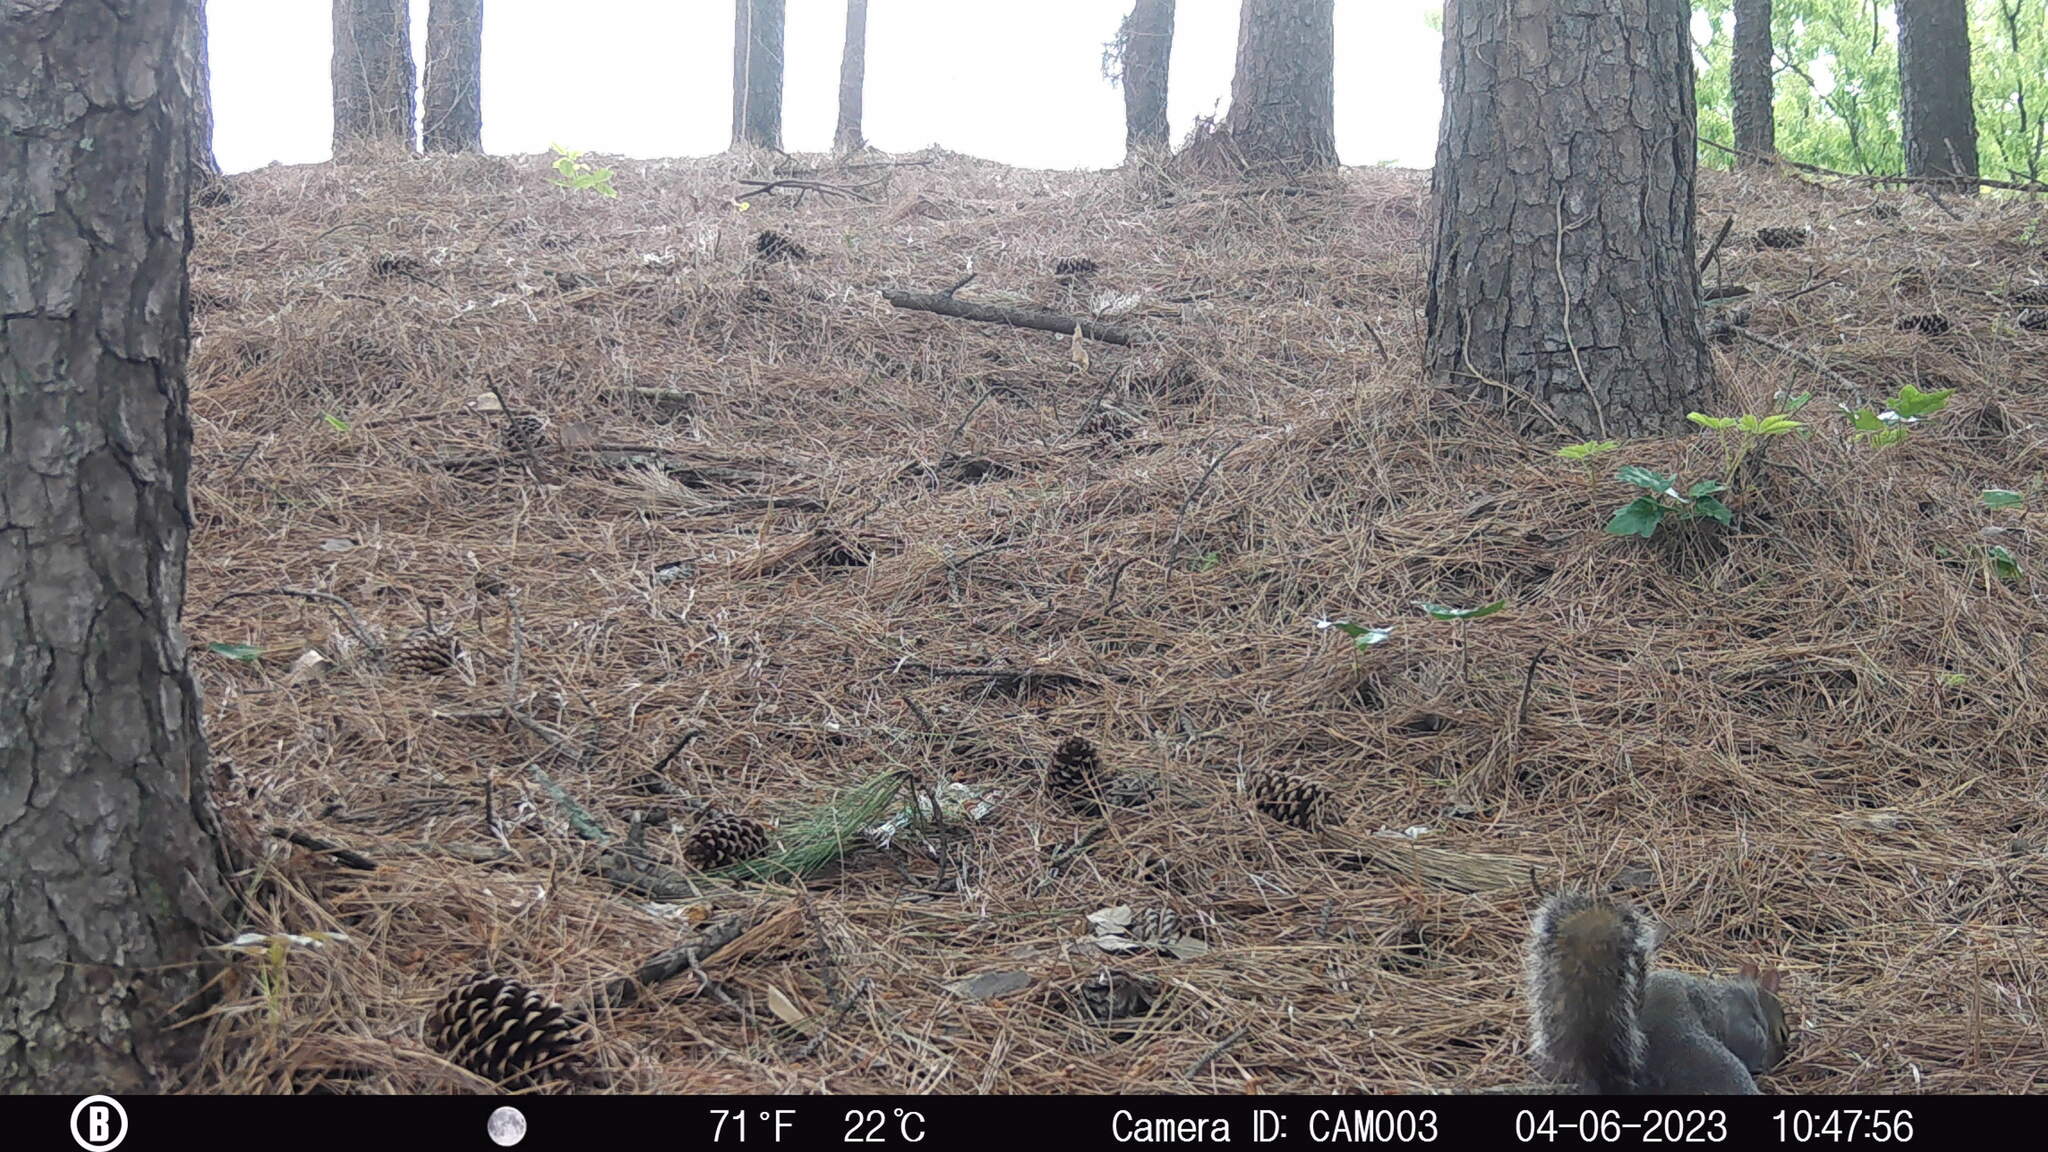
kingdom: Animalia
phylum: Chordata
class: Mammalia
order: Rodentia
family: Sciuridae
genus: Sciurus
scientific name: Sciurus carolinensis
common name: Eastern gray squirrel
